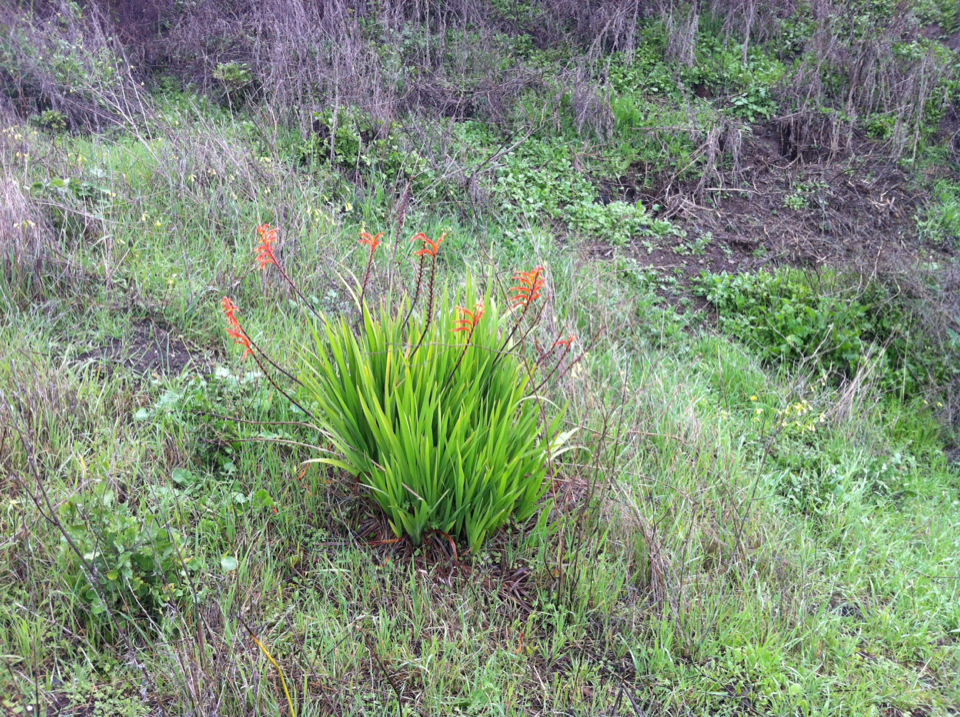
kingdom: Plantae
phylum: Tracheophyta
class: Liliopsida
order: Asparagales
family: Iridaceae
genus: Chasmanthe
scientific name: Chasmanthe floribunda
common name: African cornflag
